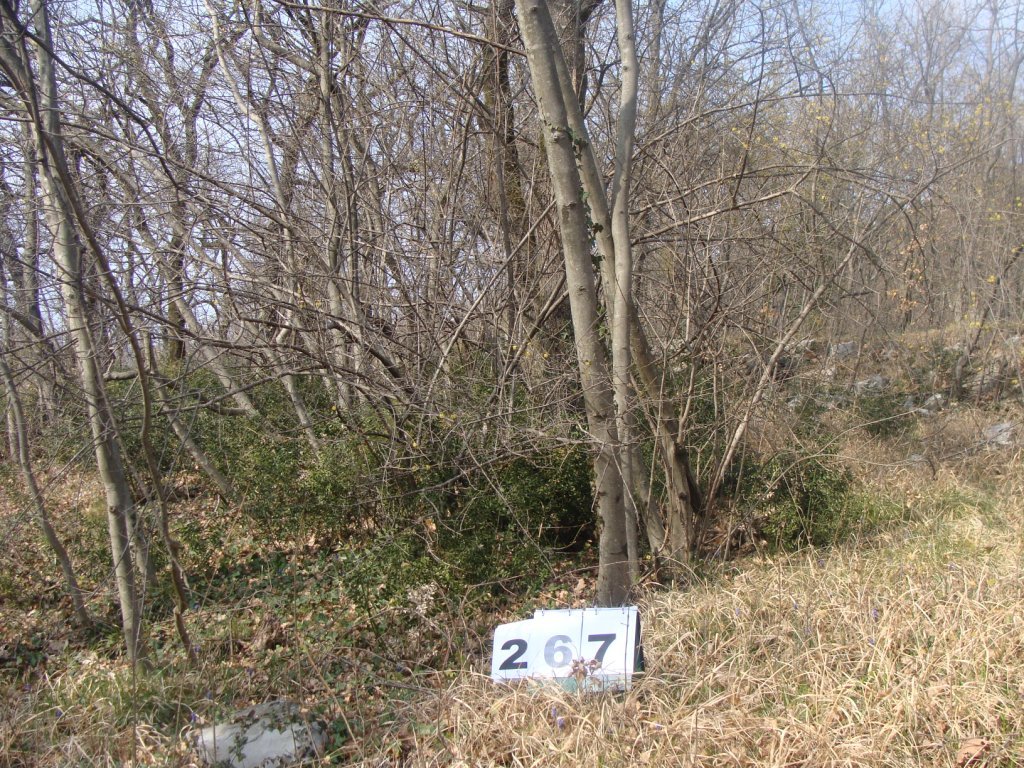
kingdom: Plantae
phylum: Tracheophyta
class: Magnoliopsida
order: Cornales
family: Cornaceae
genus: Cornus
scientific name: Cornus mas
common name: Cornelian-cherry
